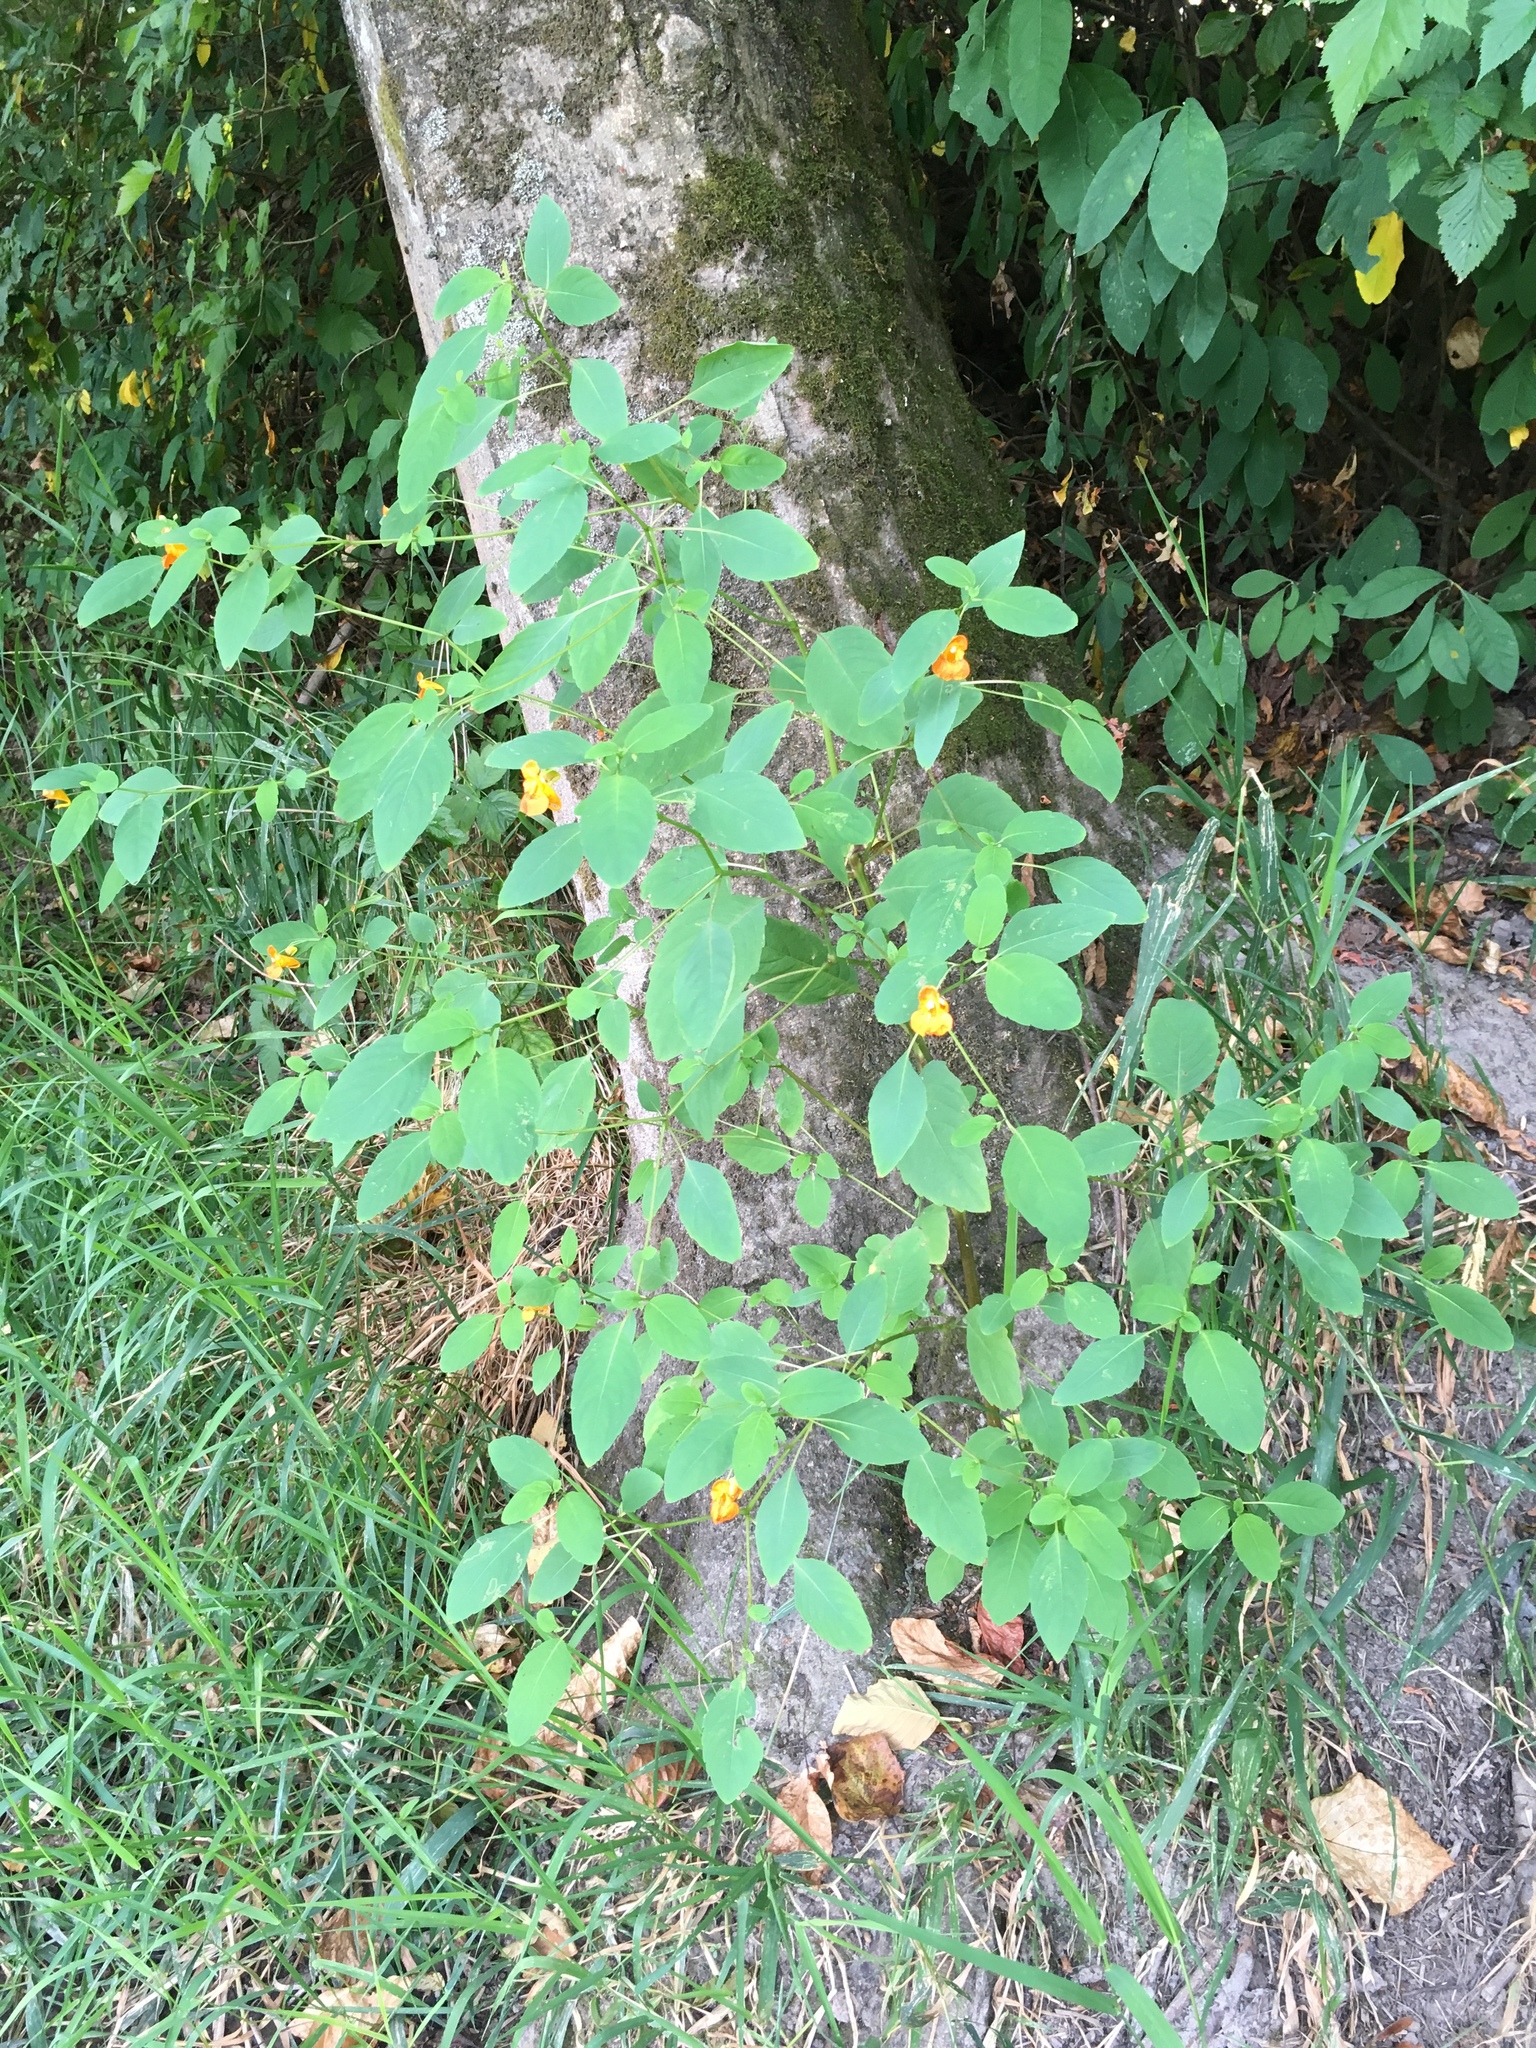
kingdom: Plantae
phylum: Tracheophyta
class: Magnoliopsida
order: Ericales
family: Balsaminaceae
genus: Impatiens
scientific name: Impatiens capensis
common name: Orange balsam
